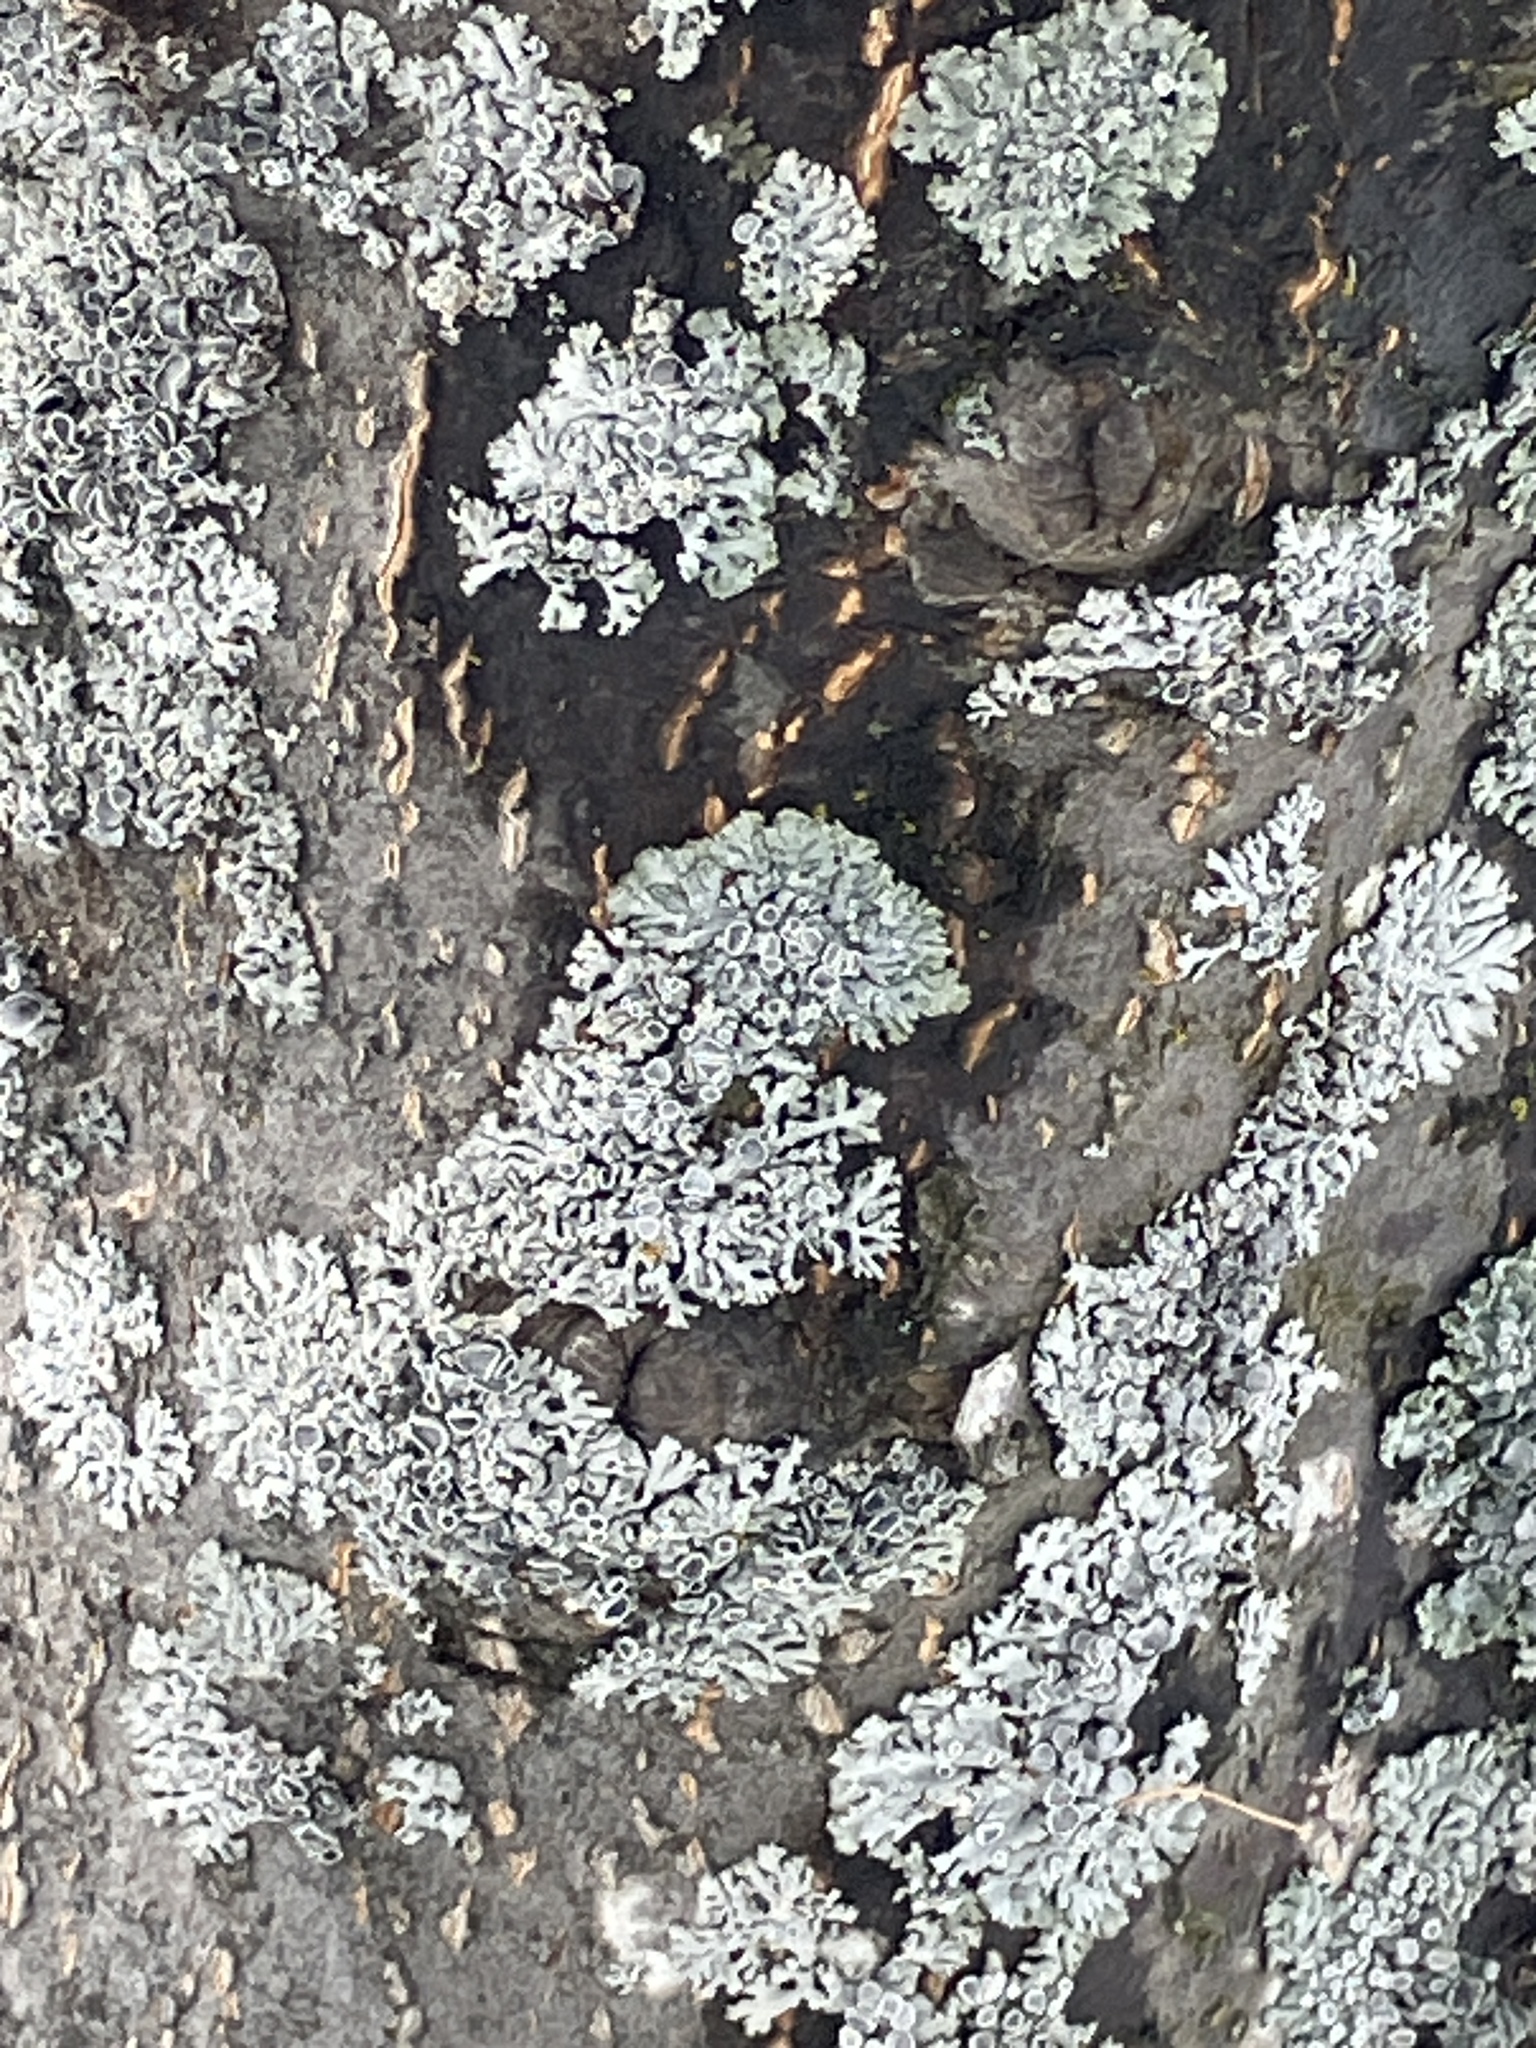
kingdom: Fungi
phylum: Ascomycota
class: Lecanoromycetes
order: Lecanorales
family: Parmeliaceae
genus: Hypogymnia
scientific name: Hypogymnia physodes
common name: Dark crottle
